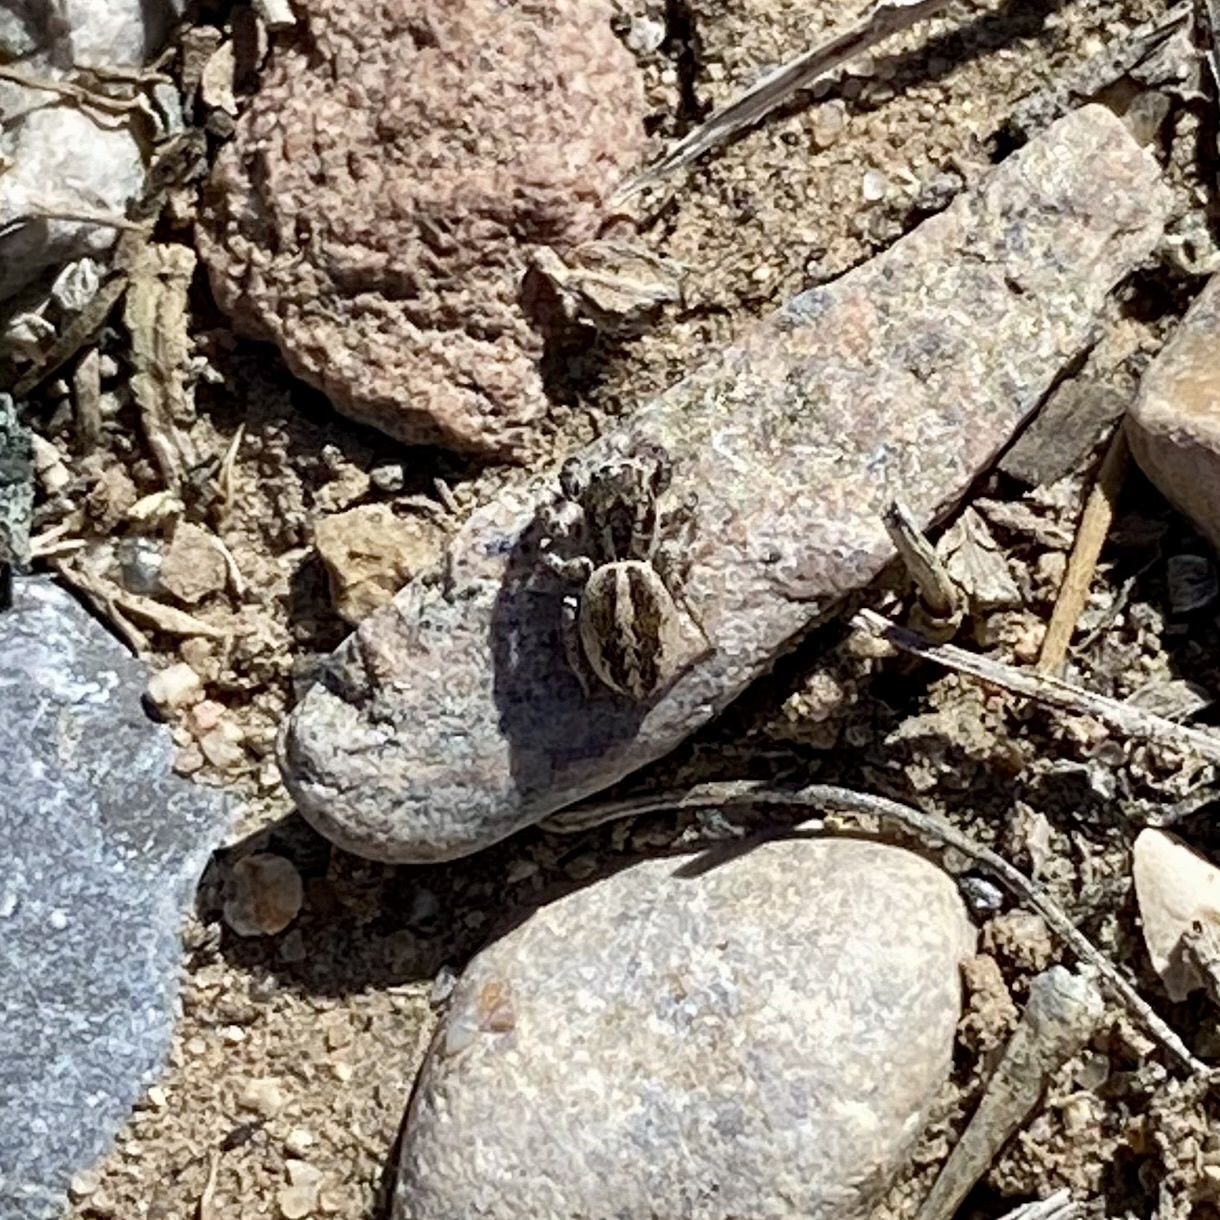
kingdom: Animalia
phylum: Arthropoda
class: Arachnida
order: Araneae
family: Salticidae
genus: Pellenes
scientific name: Pellenes
